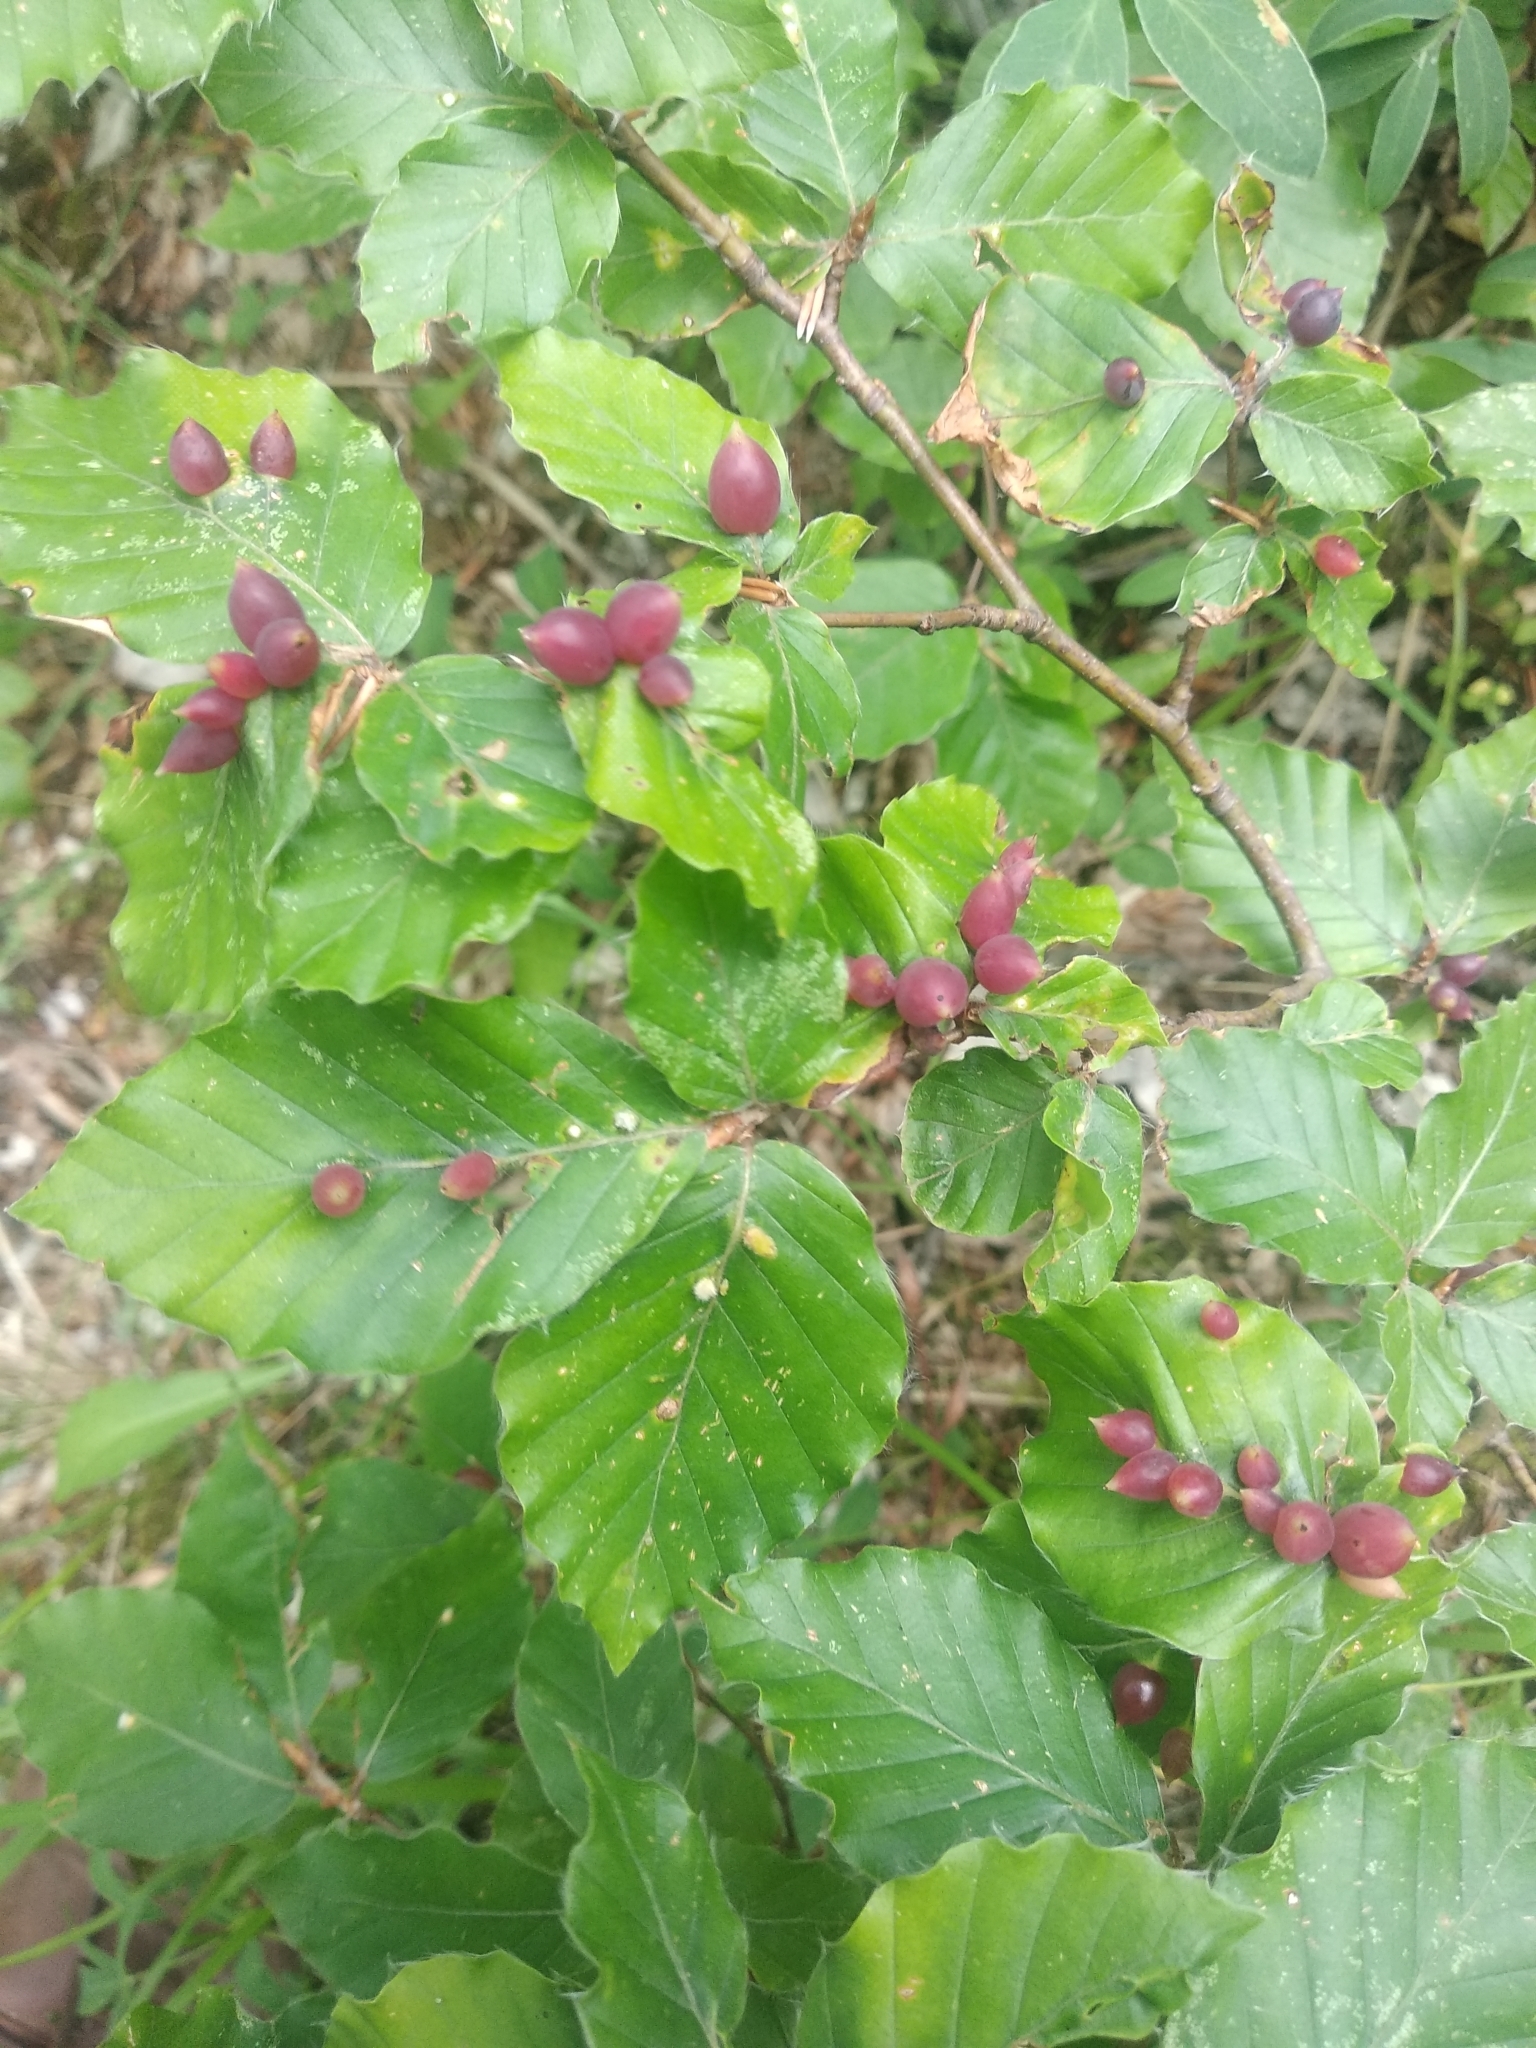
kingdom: Animalia
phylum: Arthropoda
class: Insecta
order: Diptera
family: Cecidomyiidae
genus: Mikiola
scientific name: Mikiola fagi
